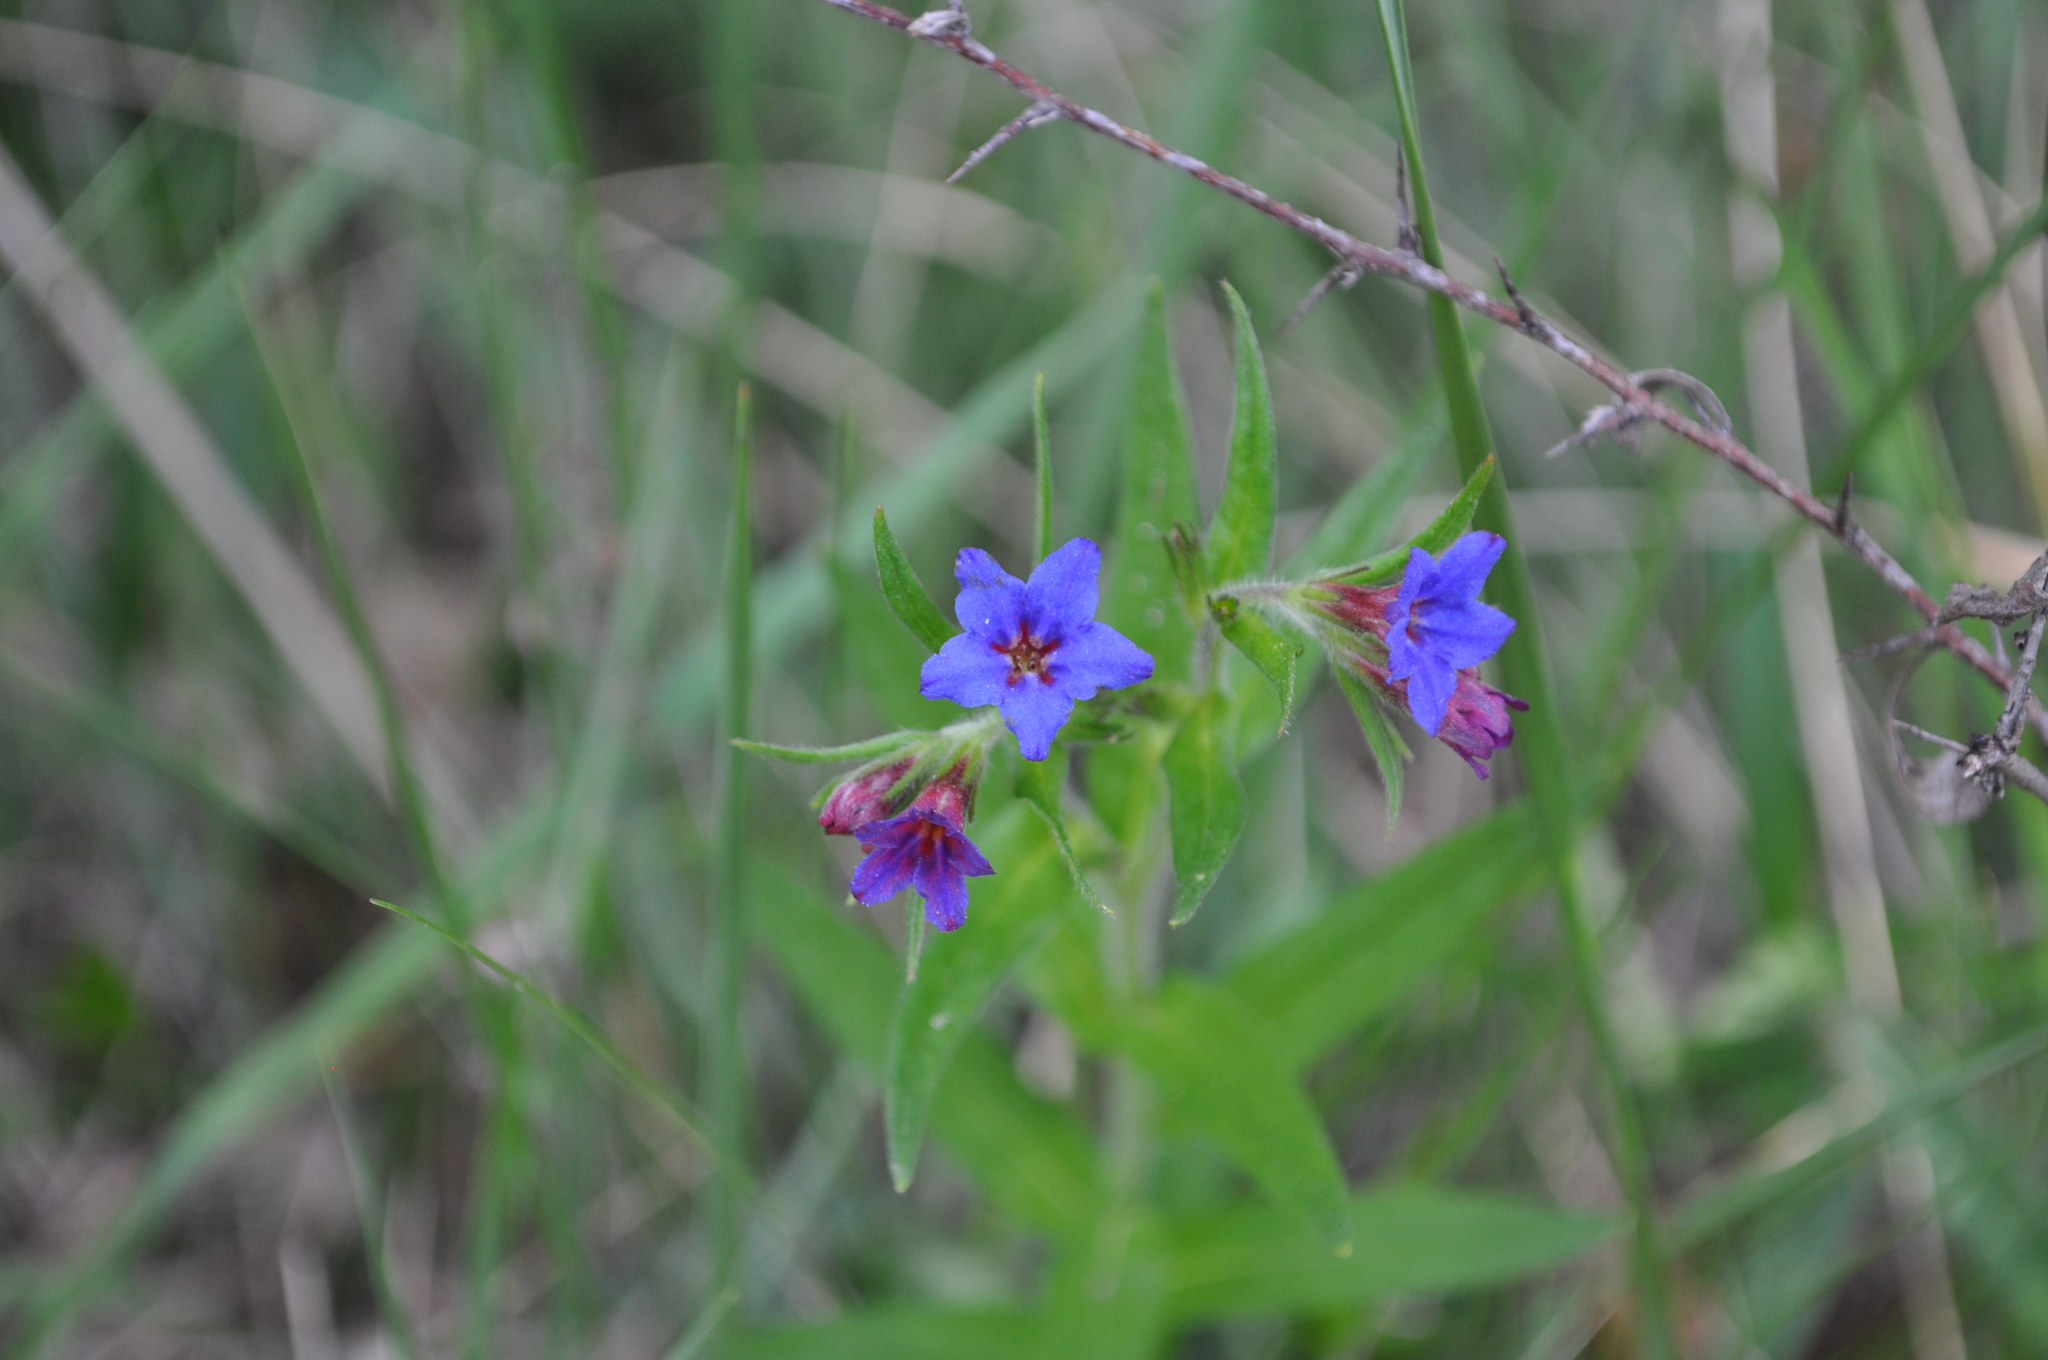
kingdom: Plantae
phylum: Tracheophyta
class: Magnoliopsida
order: Boraginales
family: Boraginaceae
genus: Aegonychon
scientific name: Aegonychon purpurocaeruleum
